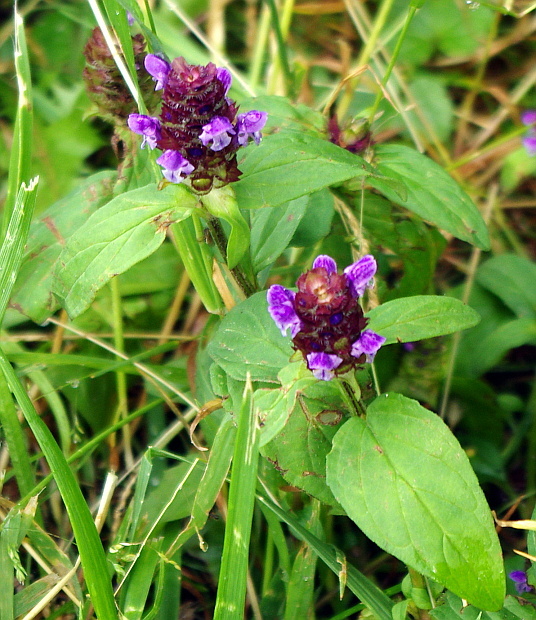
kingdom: Plantae
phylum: Tracheophyta
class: Magnoliopsida
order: Lamiales
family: Lamiaceae
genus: Prunella
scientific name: Prunella vulgaris
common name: Heal-all
